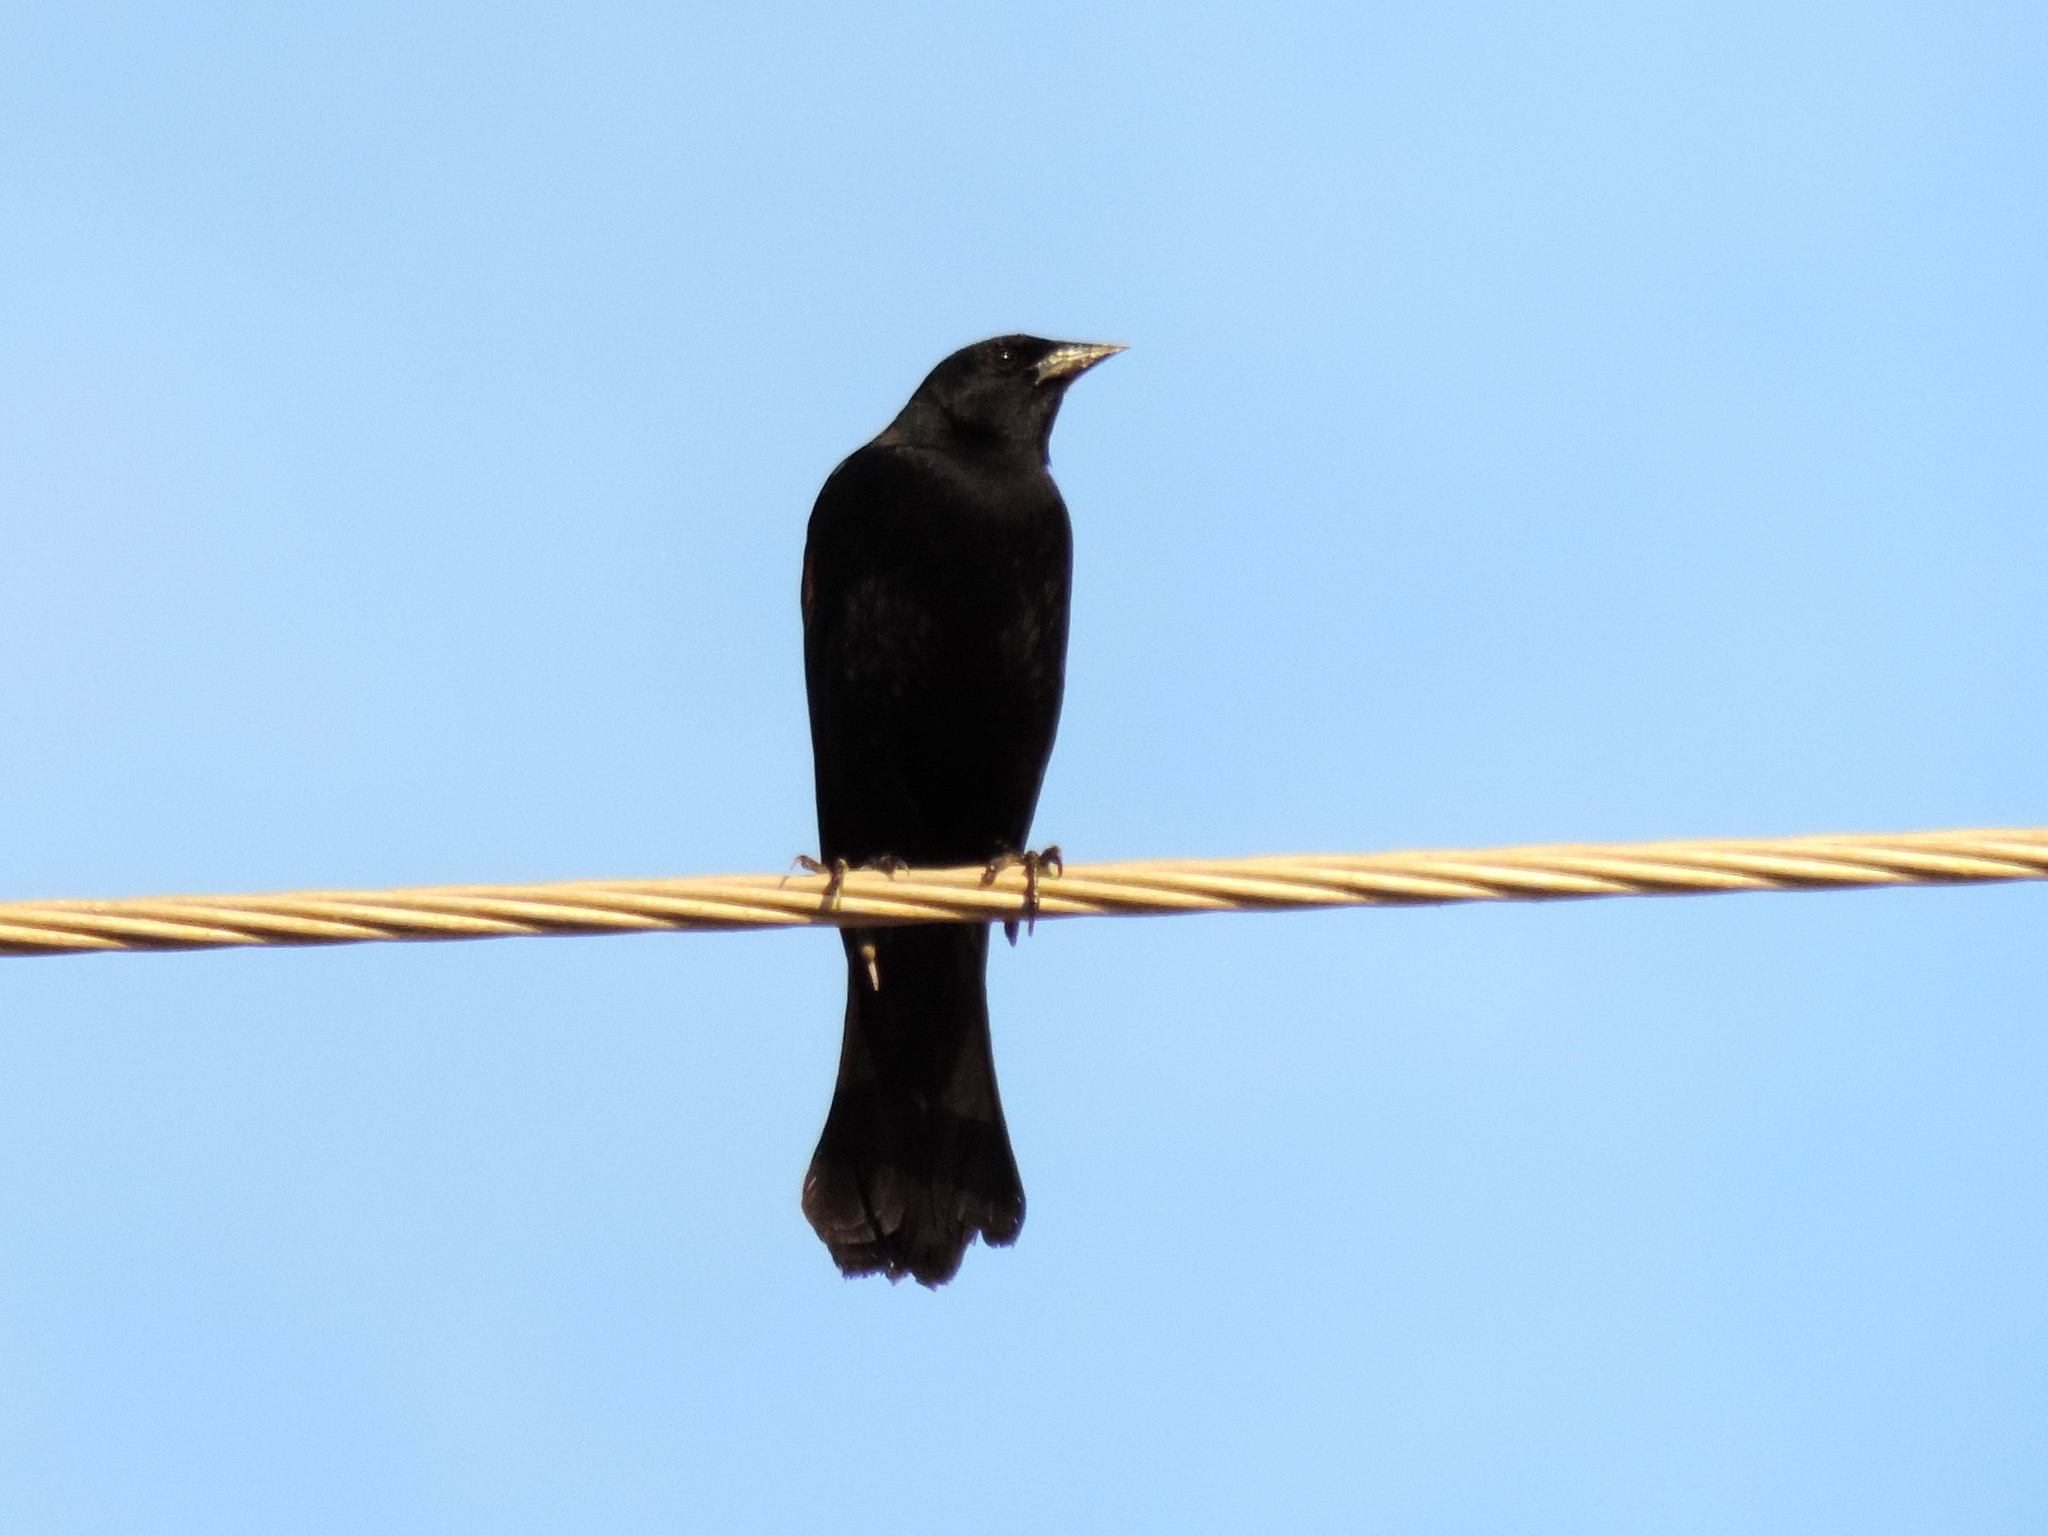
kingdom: Animalia
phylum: Chordata
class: Aves
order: Passeriformes
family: Icteridae
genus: Agelaius
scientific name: Agelaius phoeniceus
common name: Red-winged blackbird
